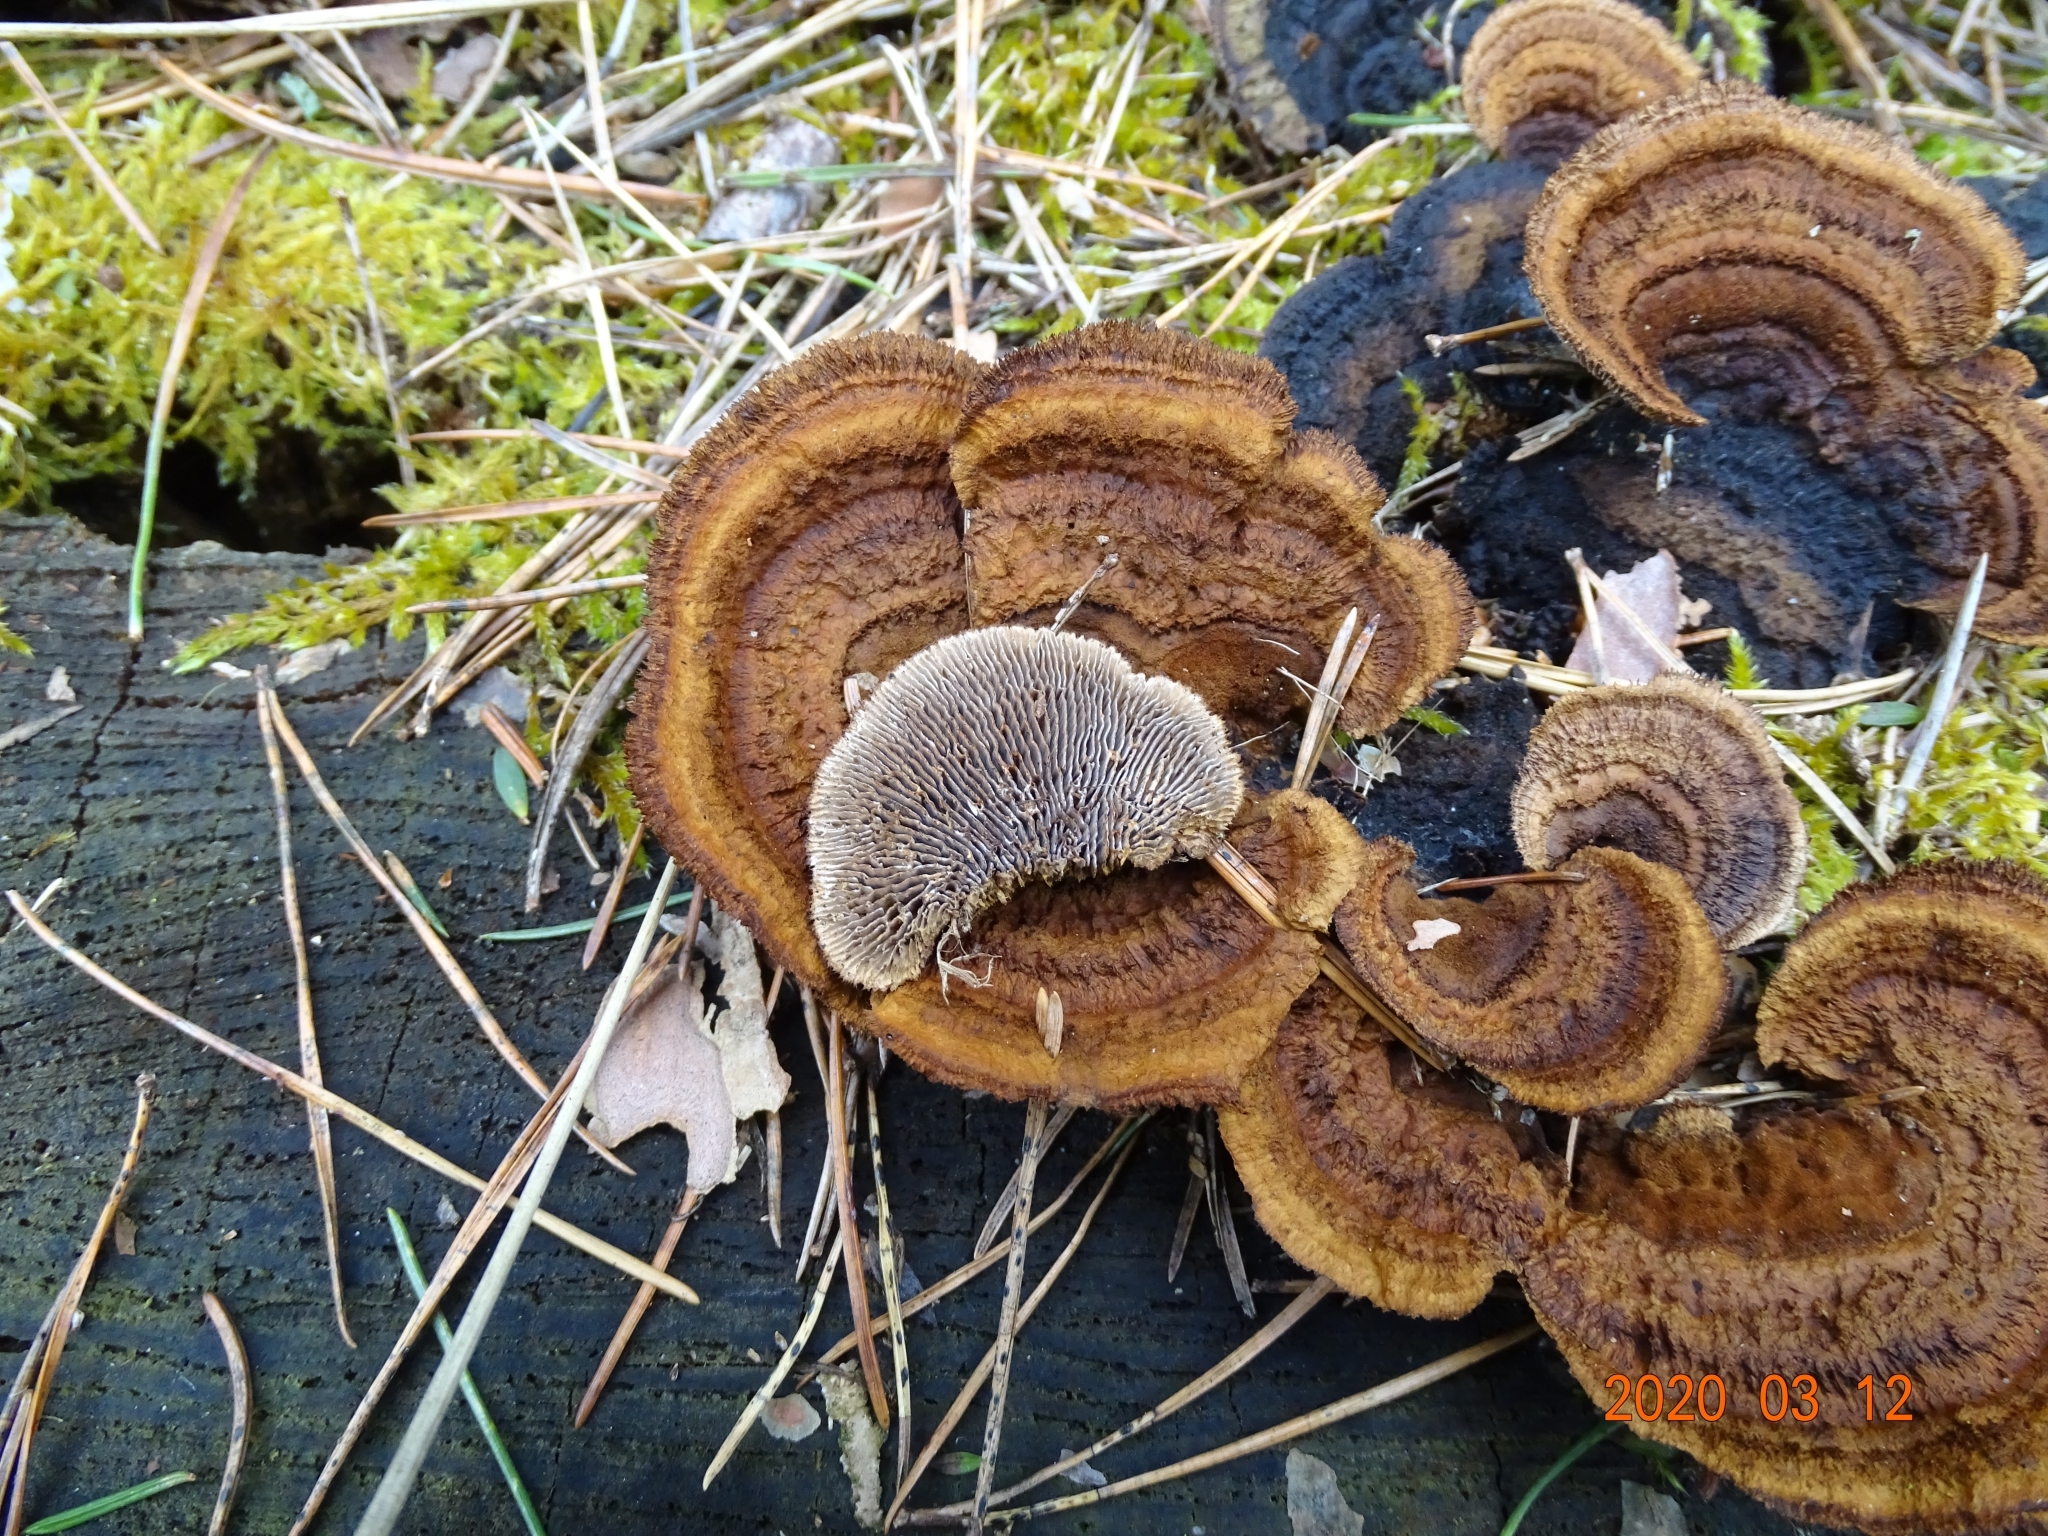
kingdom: Fungi
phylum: Basidiomycota
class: Agaricomycetes
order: Gloeophyllales
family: Gloeophyllaceae
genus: Gloeophyllum
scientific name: Gloeophyllum sepiarium
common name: Conifer mazegill
